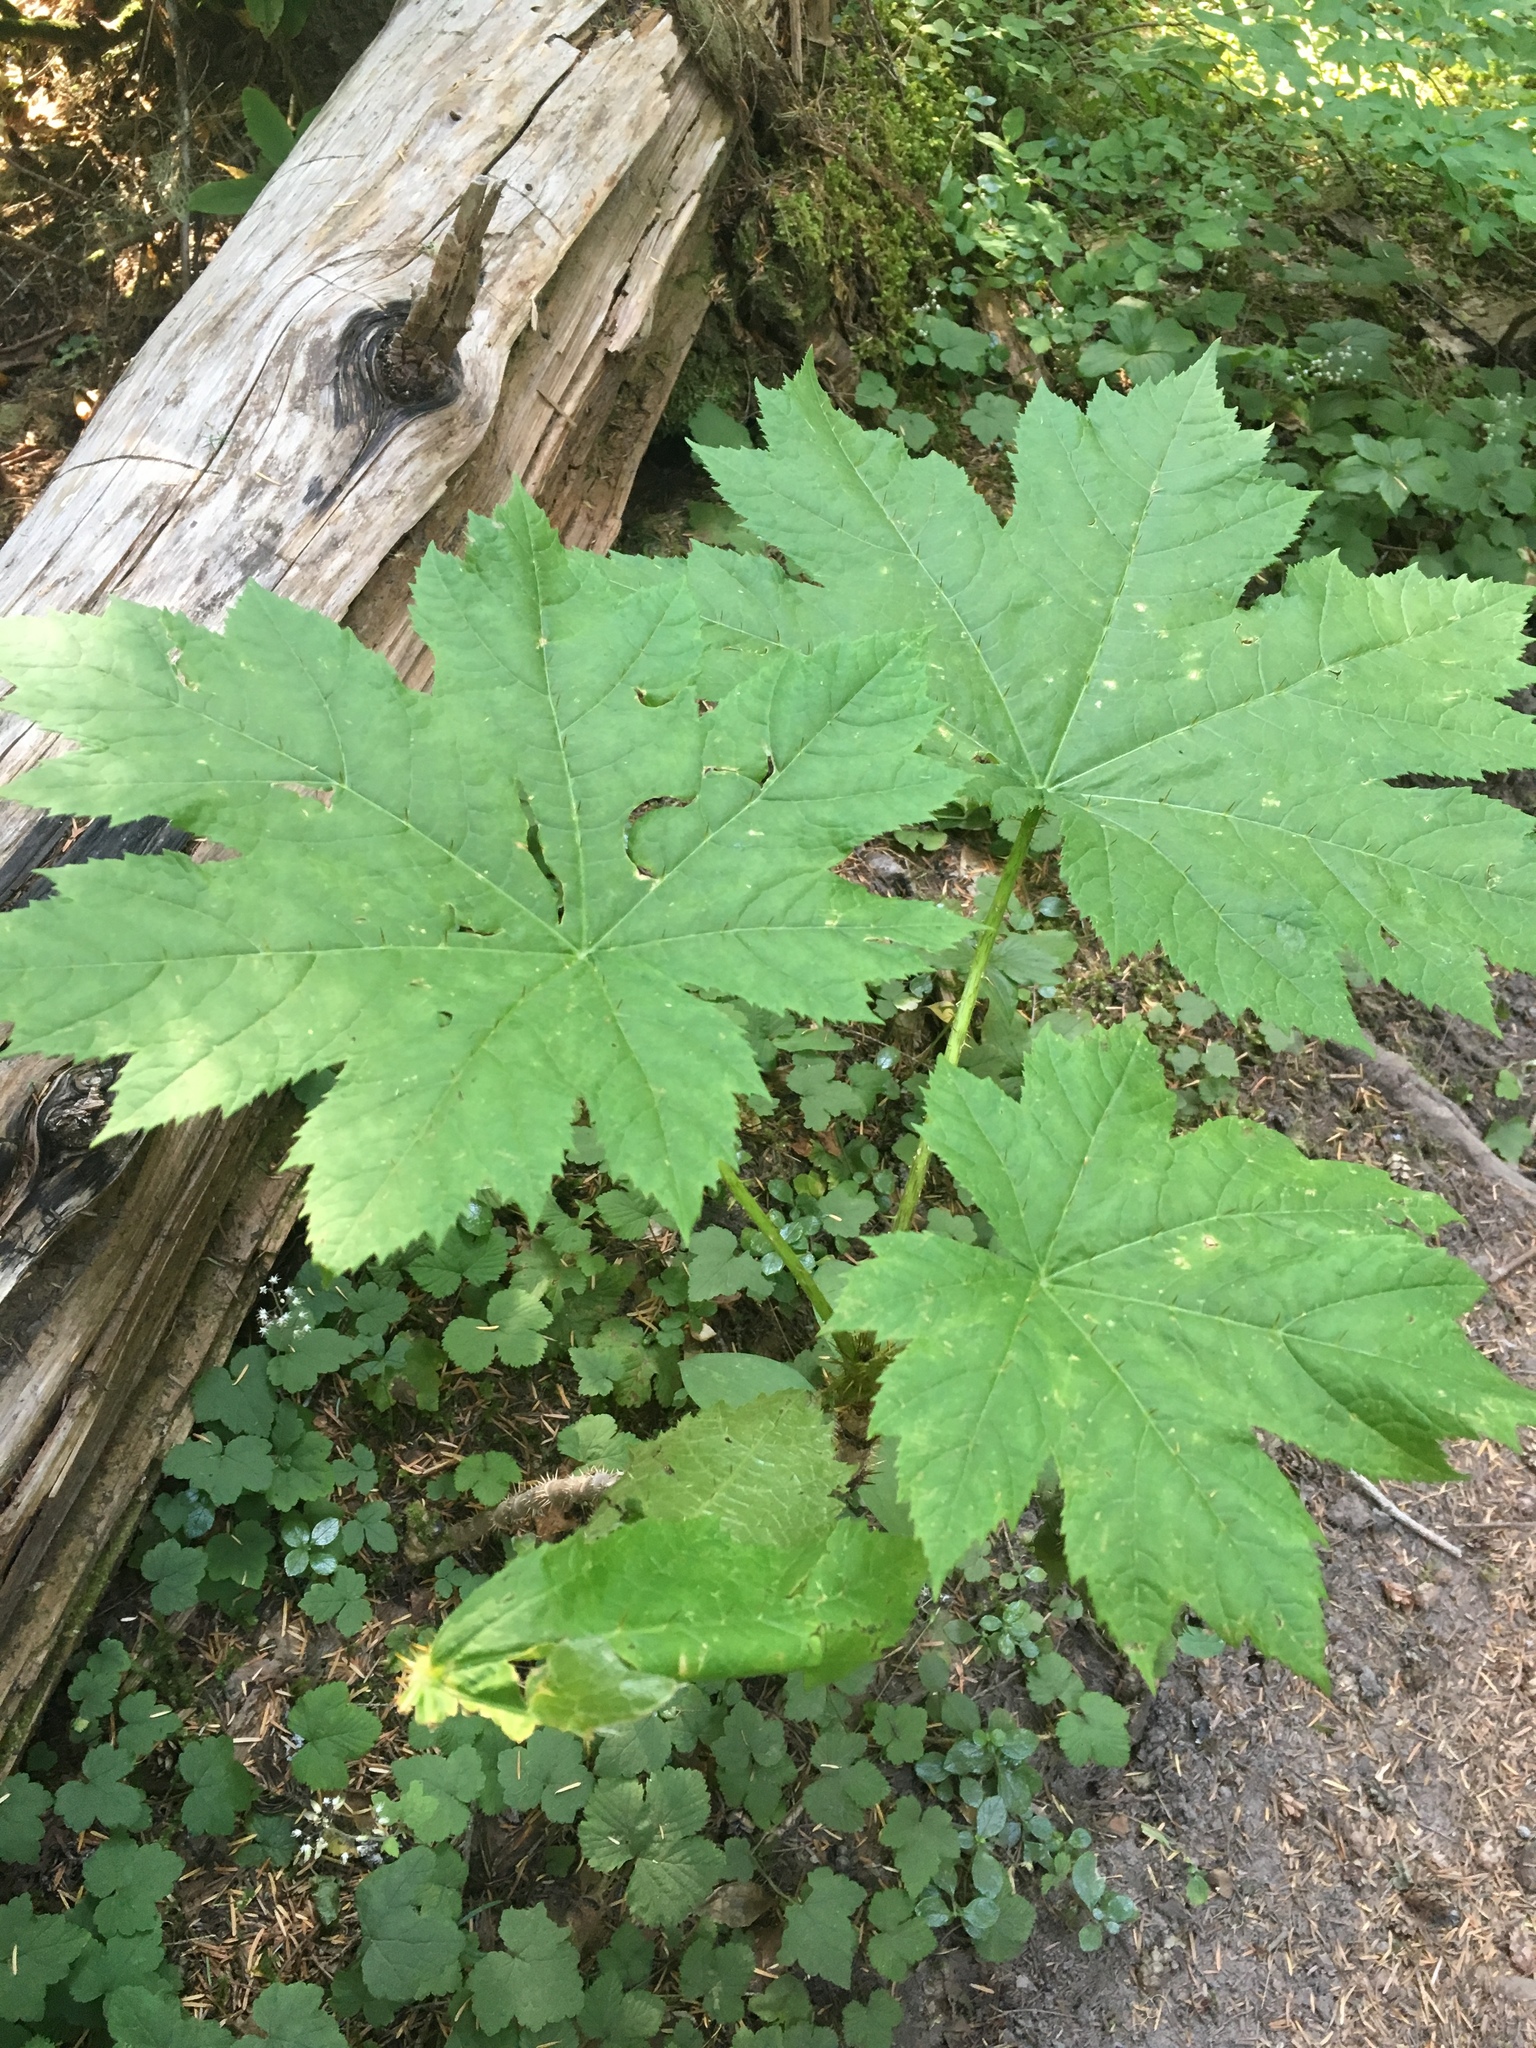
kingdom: Plantae
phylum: Tracheophyta
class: Magnoliopsida
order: Apiales
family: Araliaceae
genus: Oplopanax
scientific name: Oplopanax horridus
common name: Devil's walking-stick
